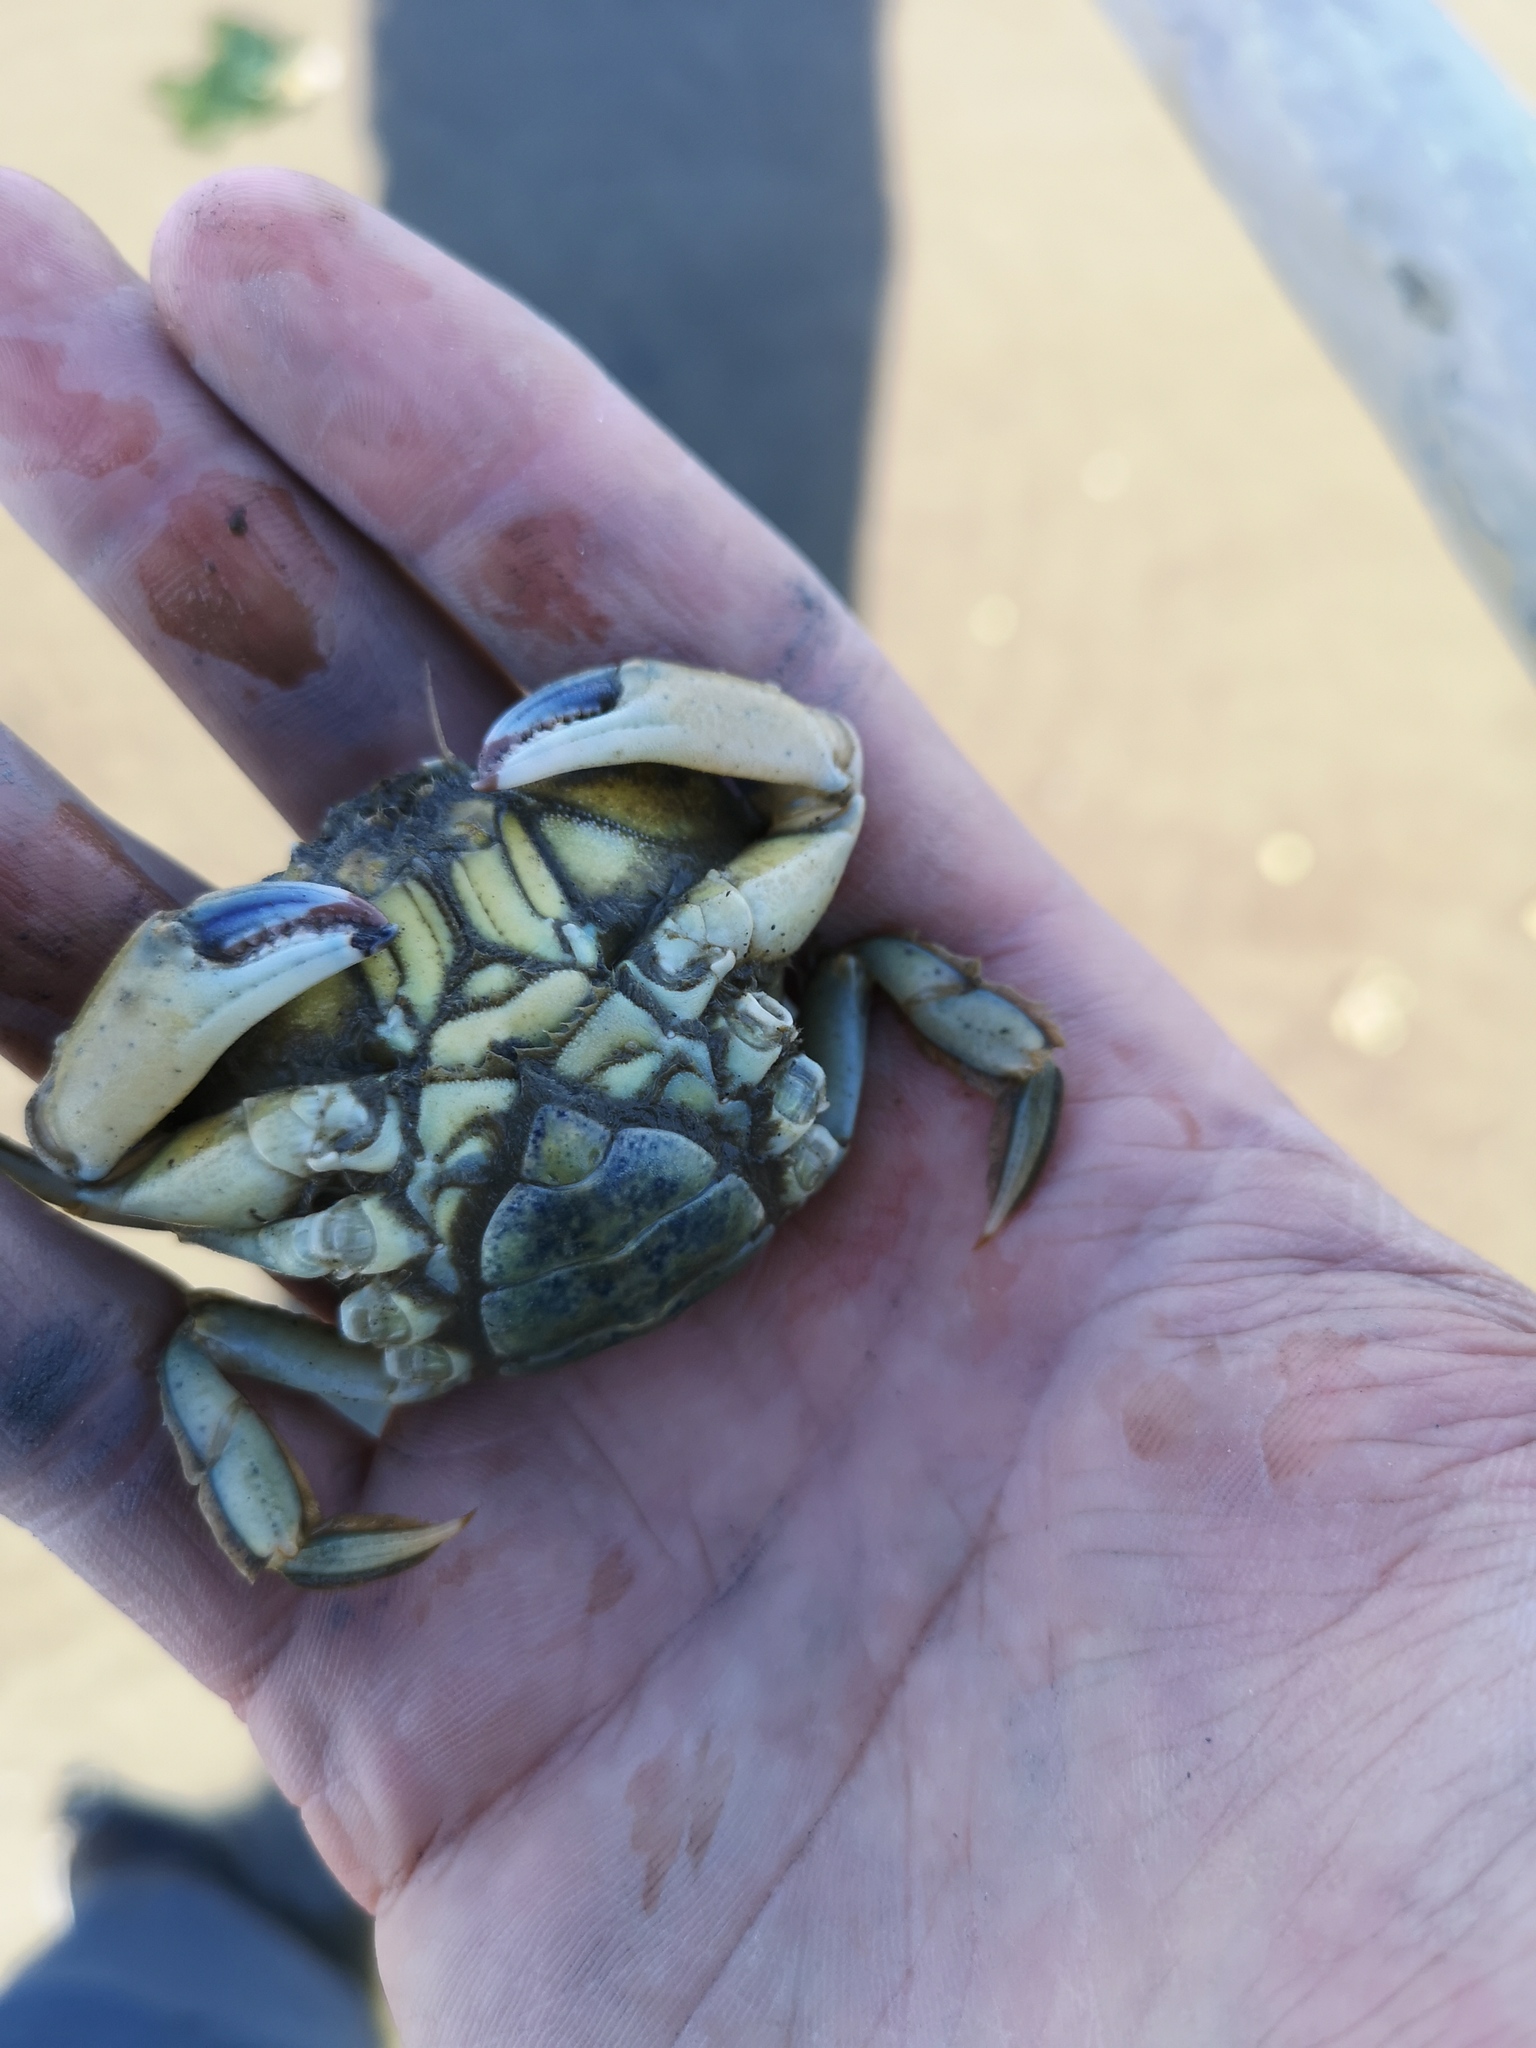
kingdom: Animalia
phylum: Arthropoda
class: Malacostraca
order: Decapoda
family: Carcinidae
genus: Carcinus
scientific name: Carcinus maenas
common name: European green crab
